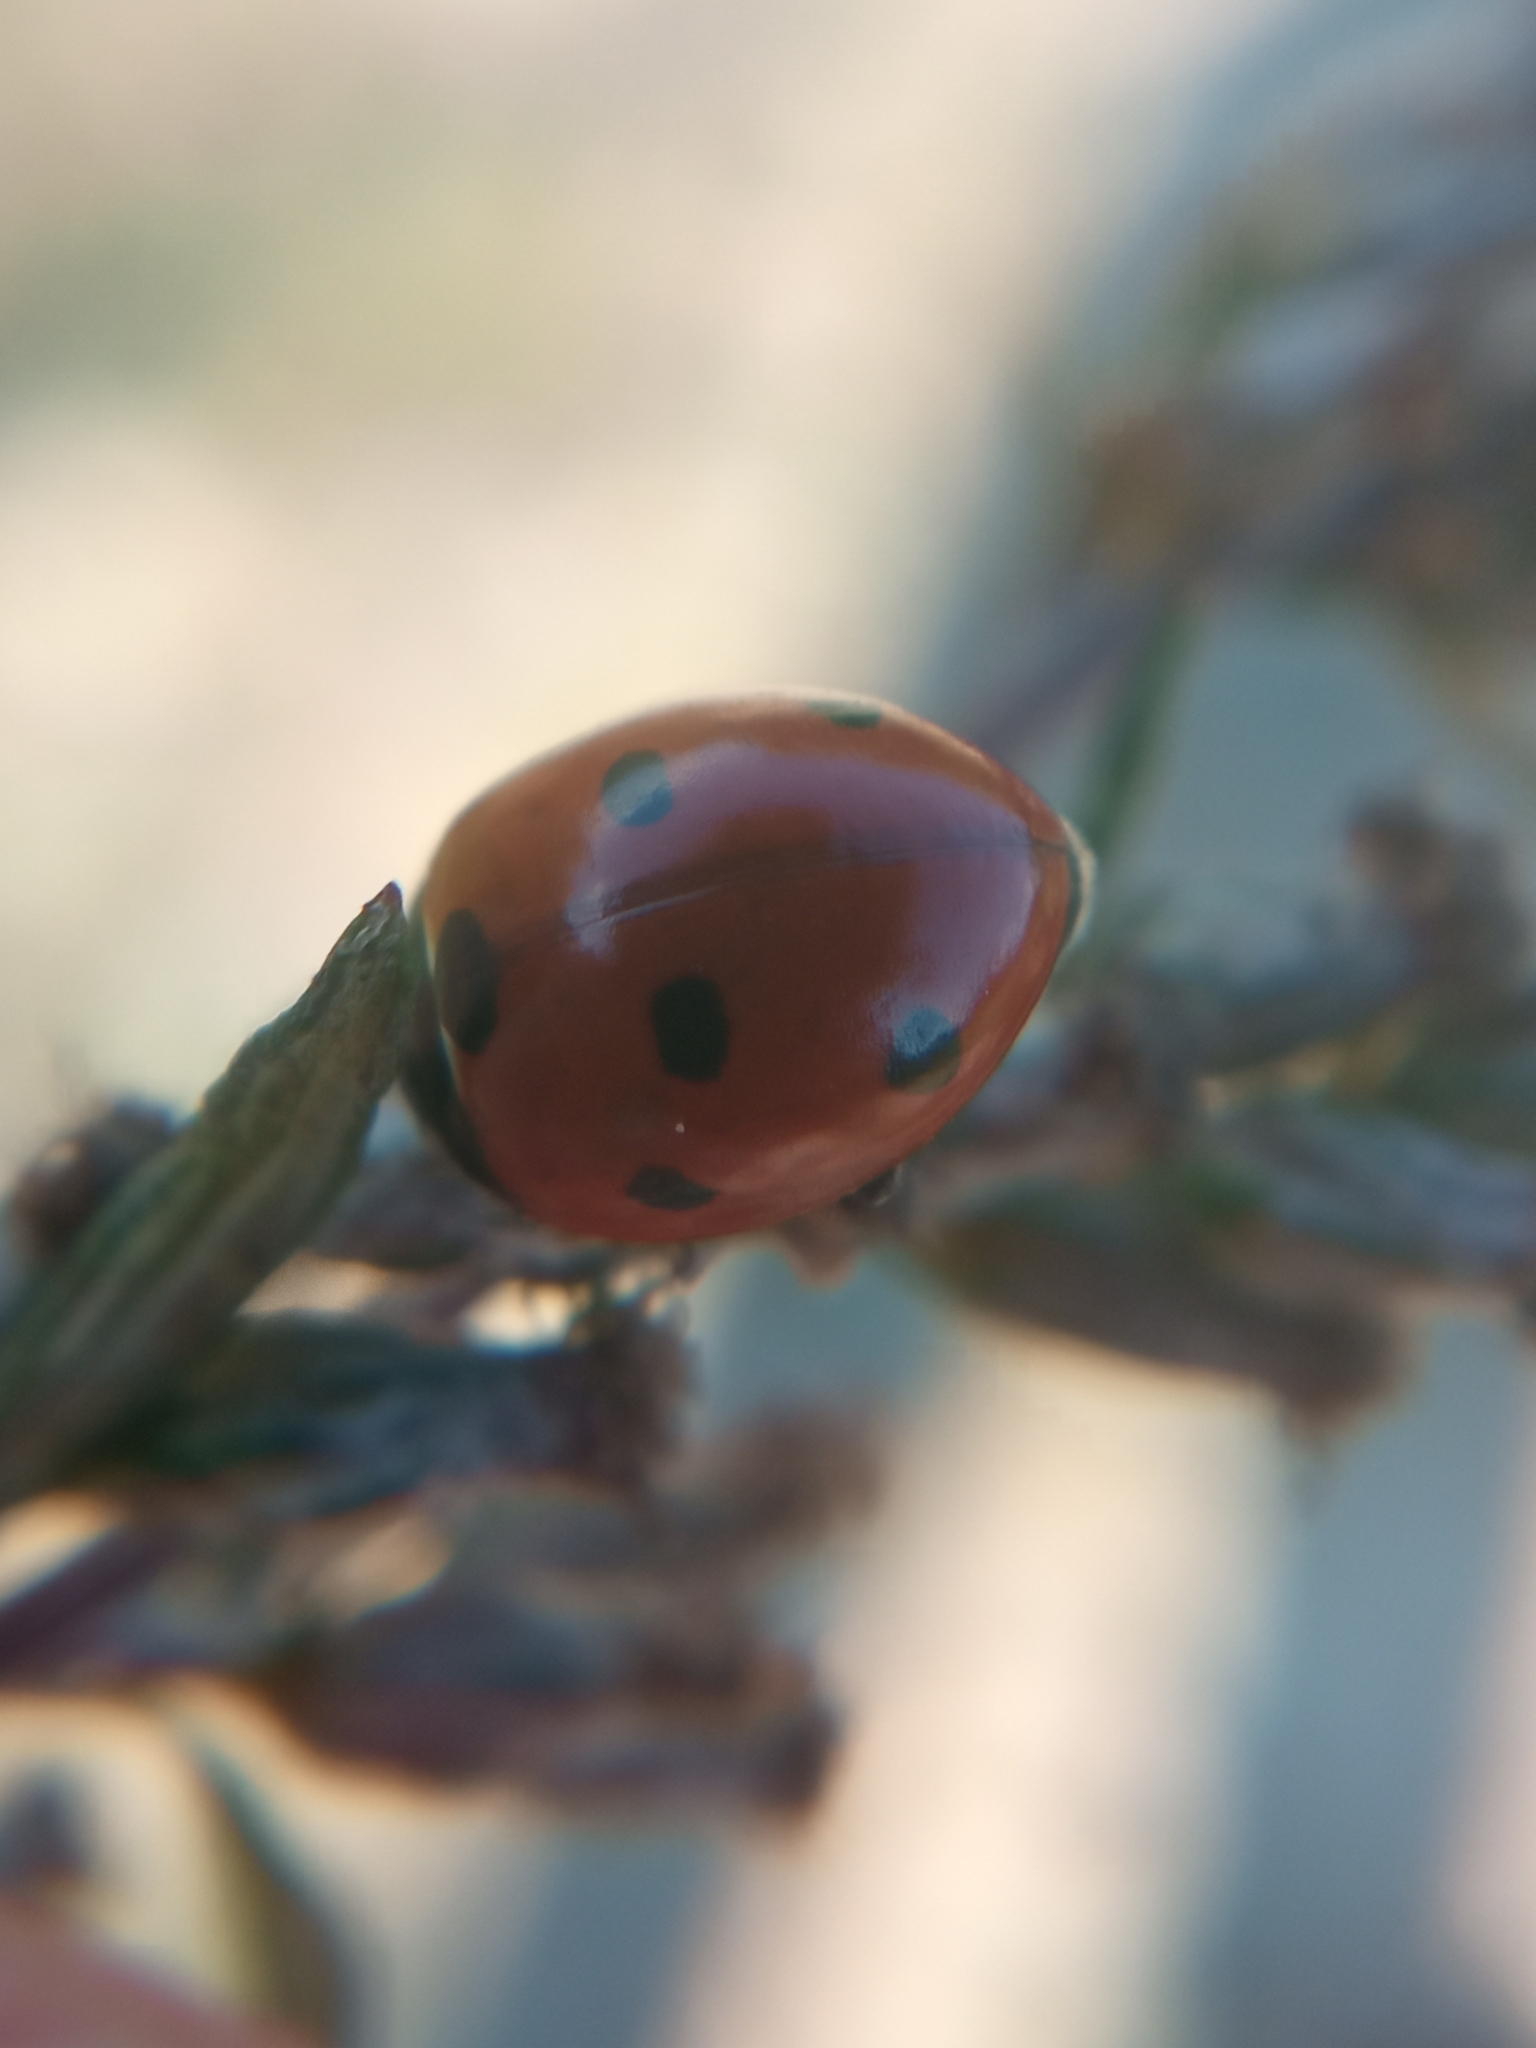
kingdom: Animalia
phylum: Arthropoda
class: Insecta
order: Coleoptera
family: Coccinellidae
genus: Coccinella
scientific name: Coccinella septempunctata
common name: Sevenspotted lady beetle
